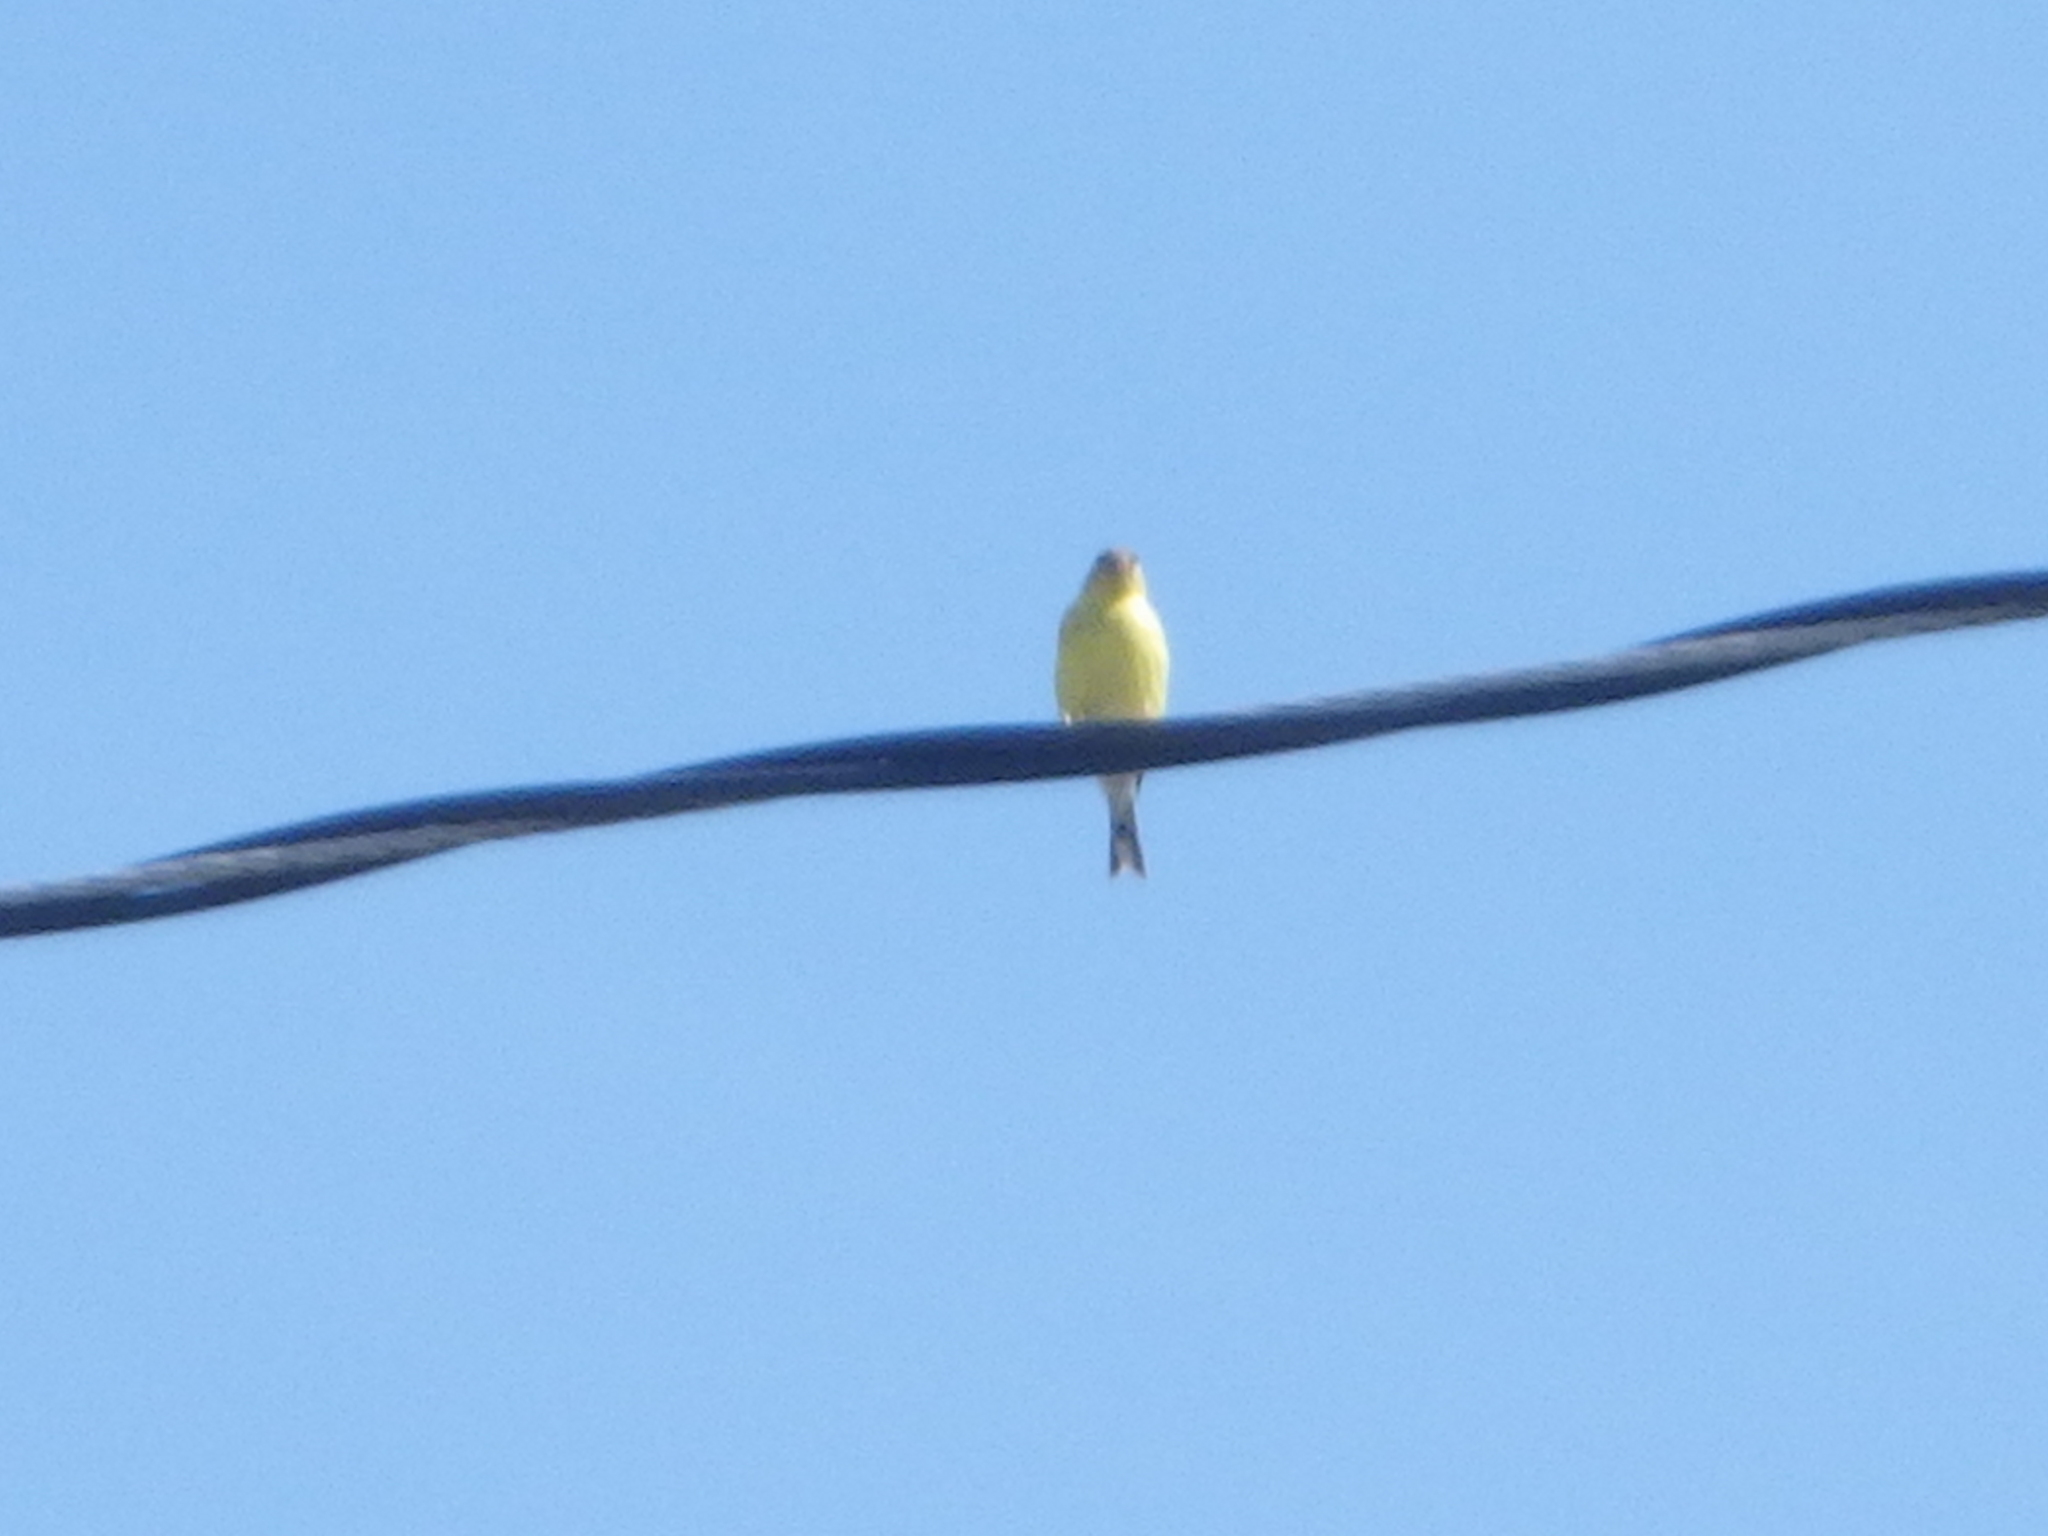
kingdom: Animalia
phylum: Chordata
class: Aves
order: Passeriformes
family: Fringillidae
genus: Spinus
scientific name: Spinus tristis
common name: American goldfinch
